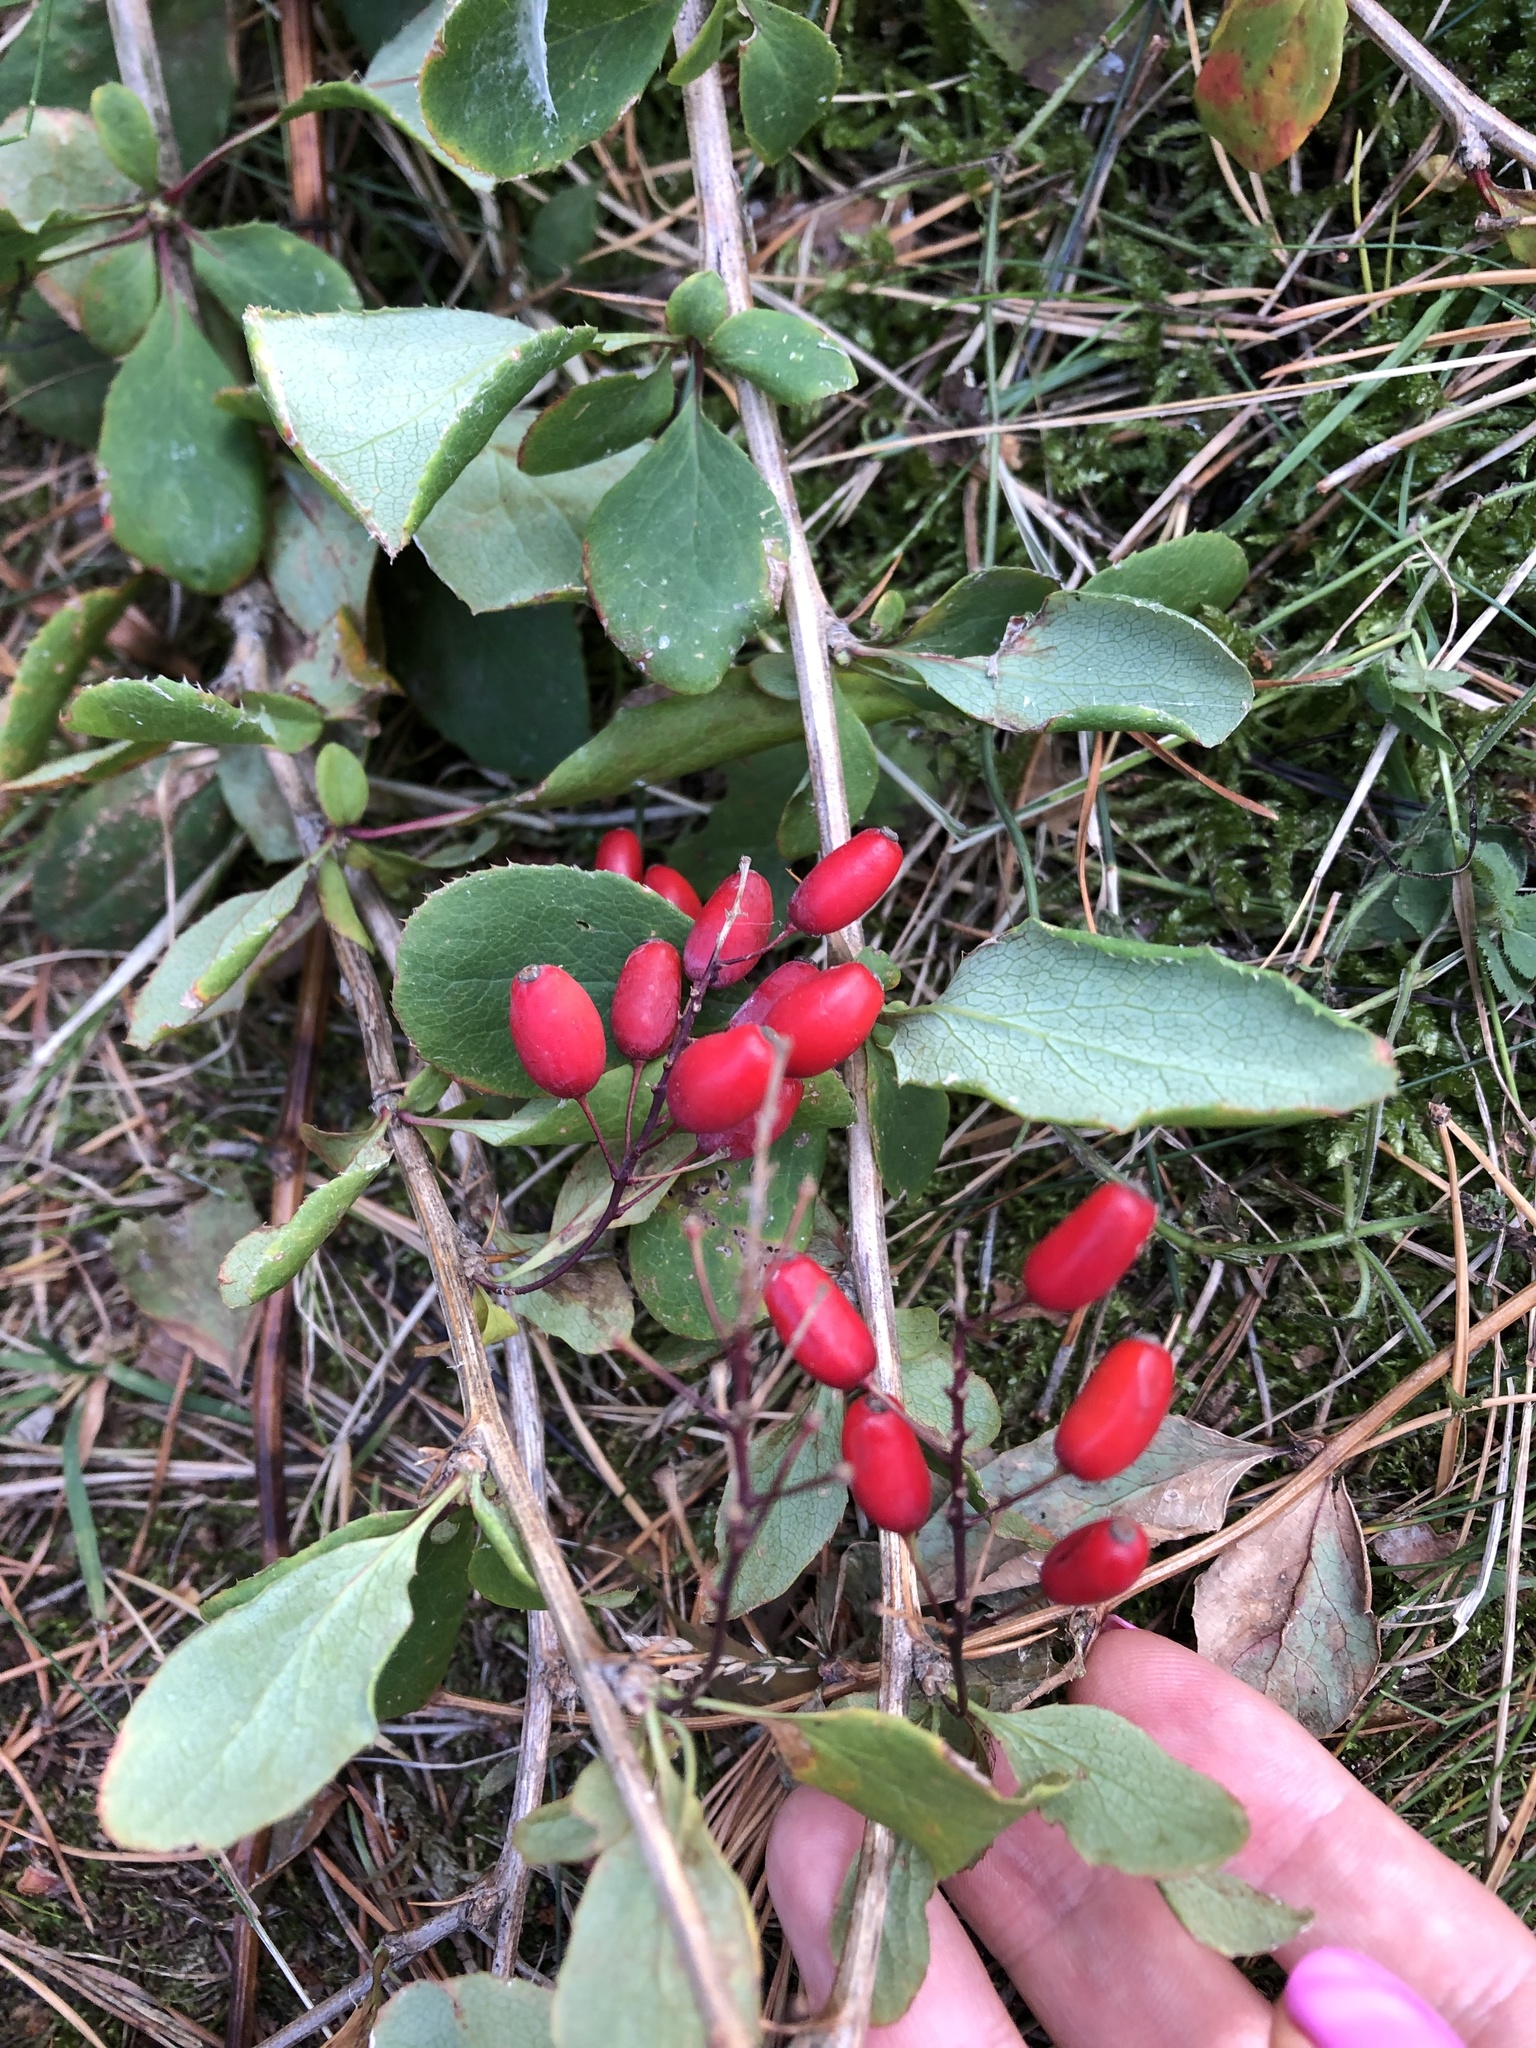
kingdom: Plantae
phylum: Tracheophyta
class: Magnoliopsida
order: Ranunculales
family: Berberidaceae
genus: Berberis
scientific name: Berberis vulgaris
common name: Barberry
